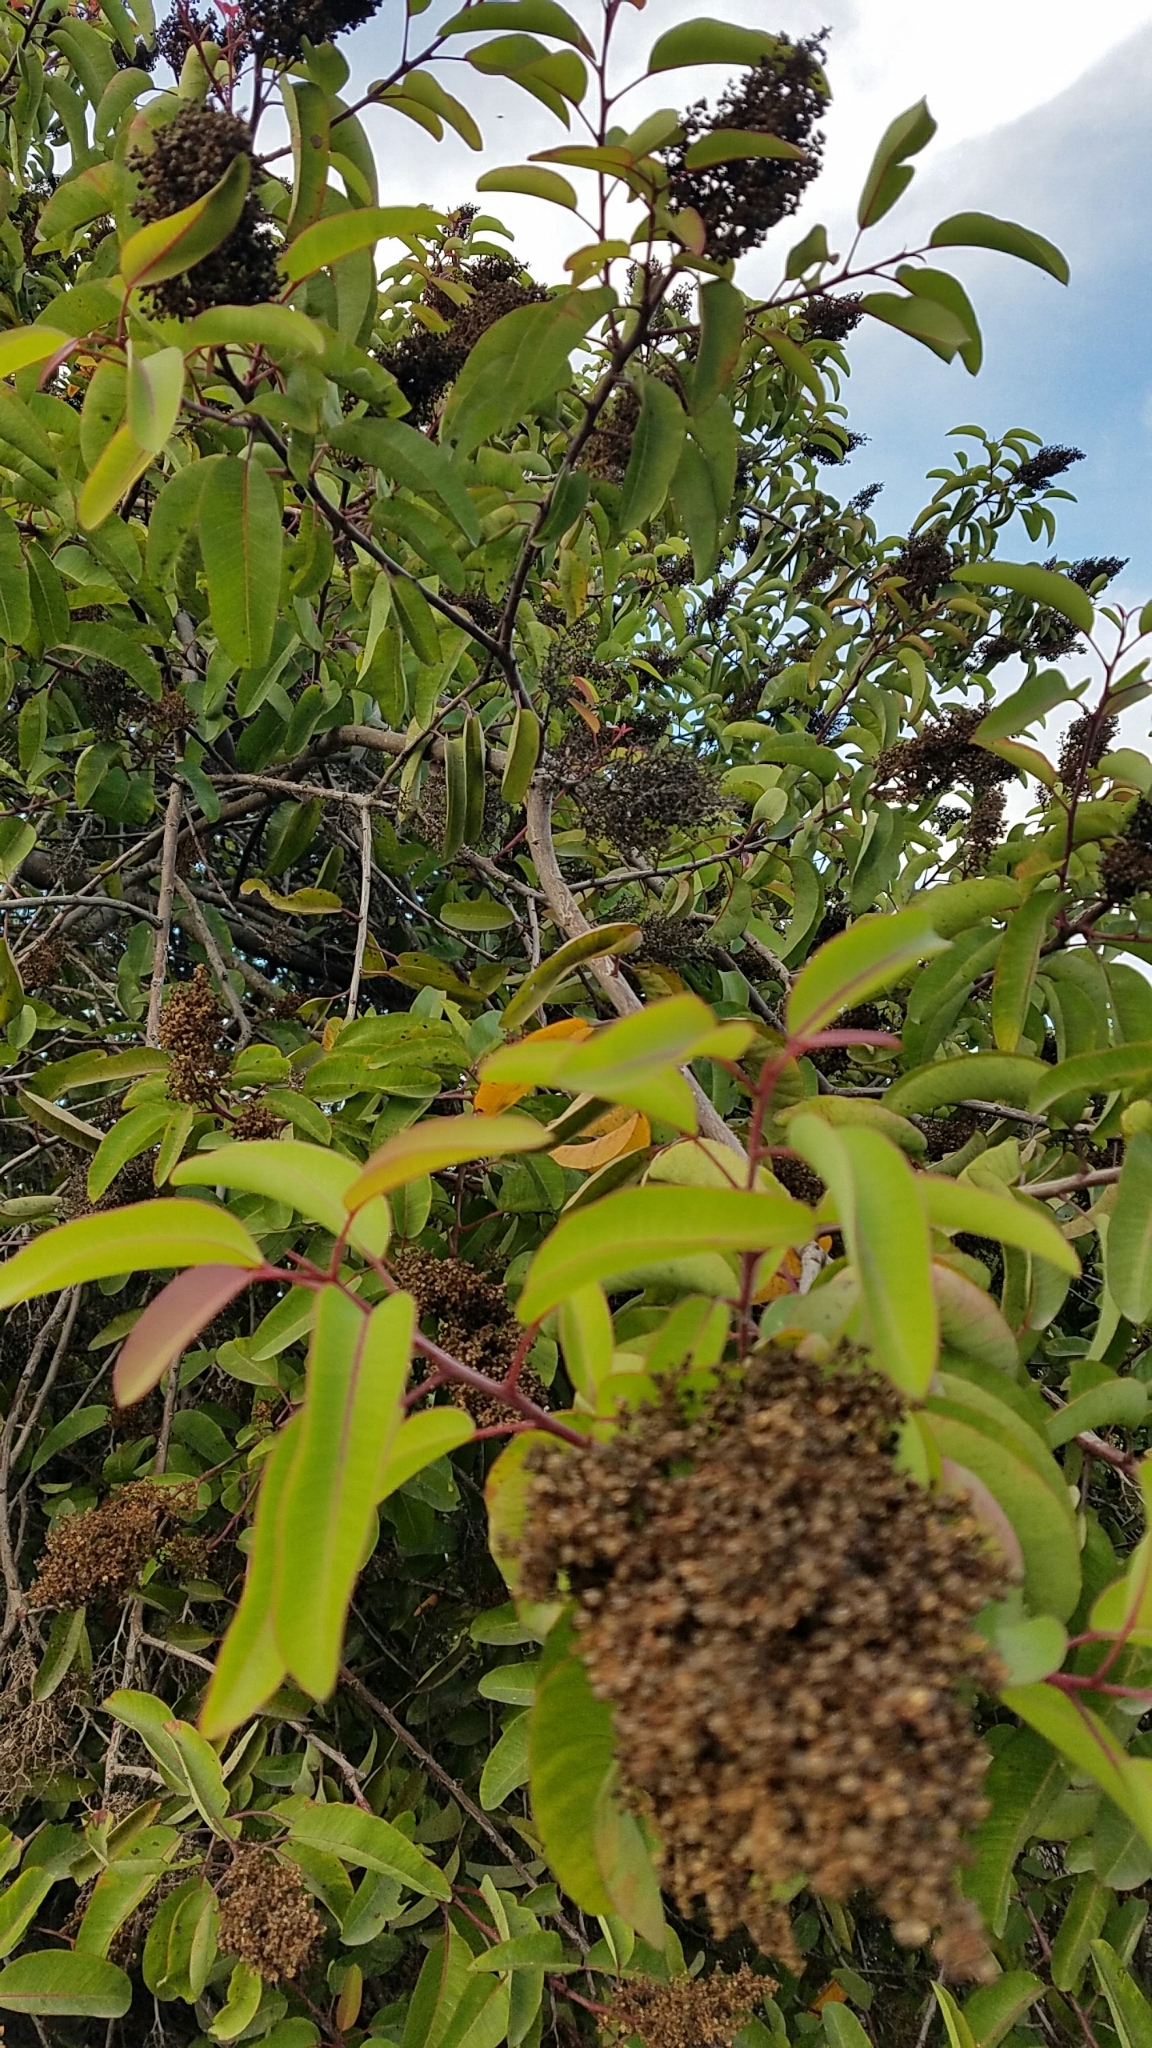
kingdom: Plantae
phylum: Tracheophyta
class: Magnoliopsida
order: Sapindales
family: Anacardiaceae
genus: Malosma
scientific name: Malosma laurina
